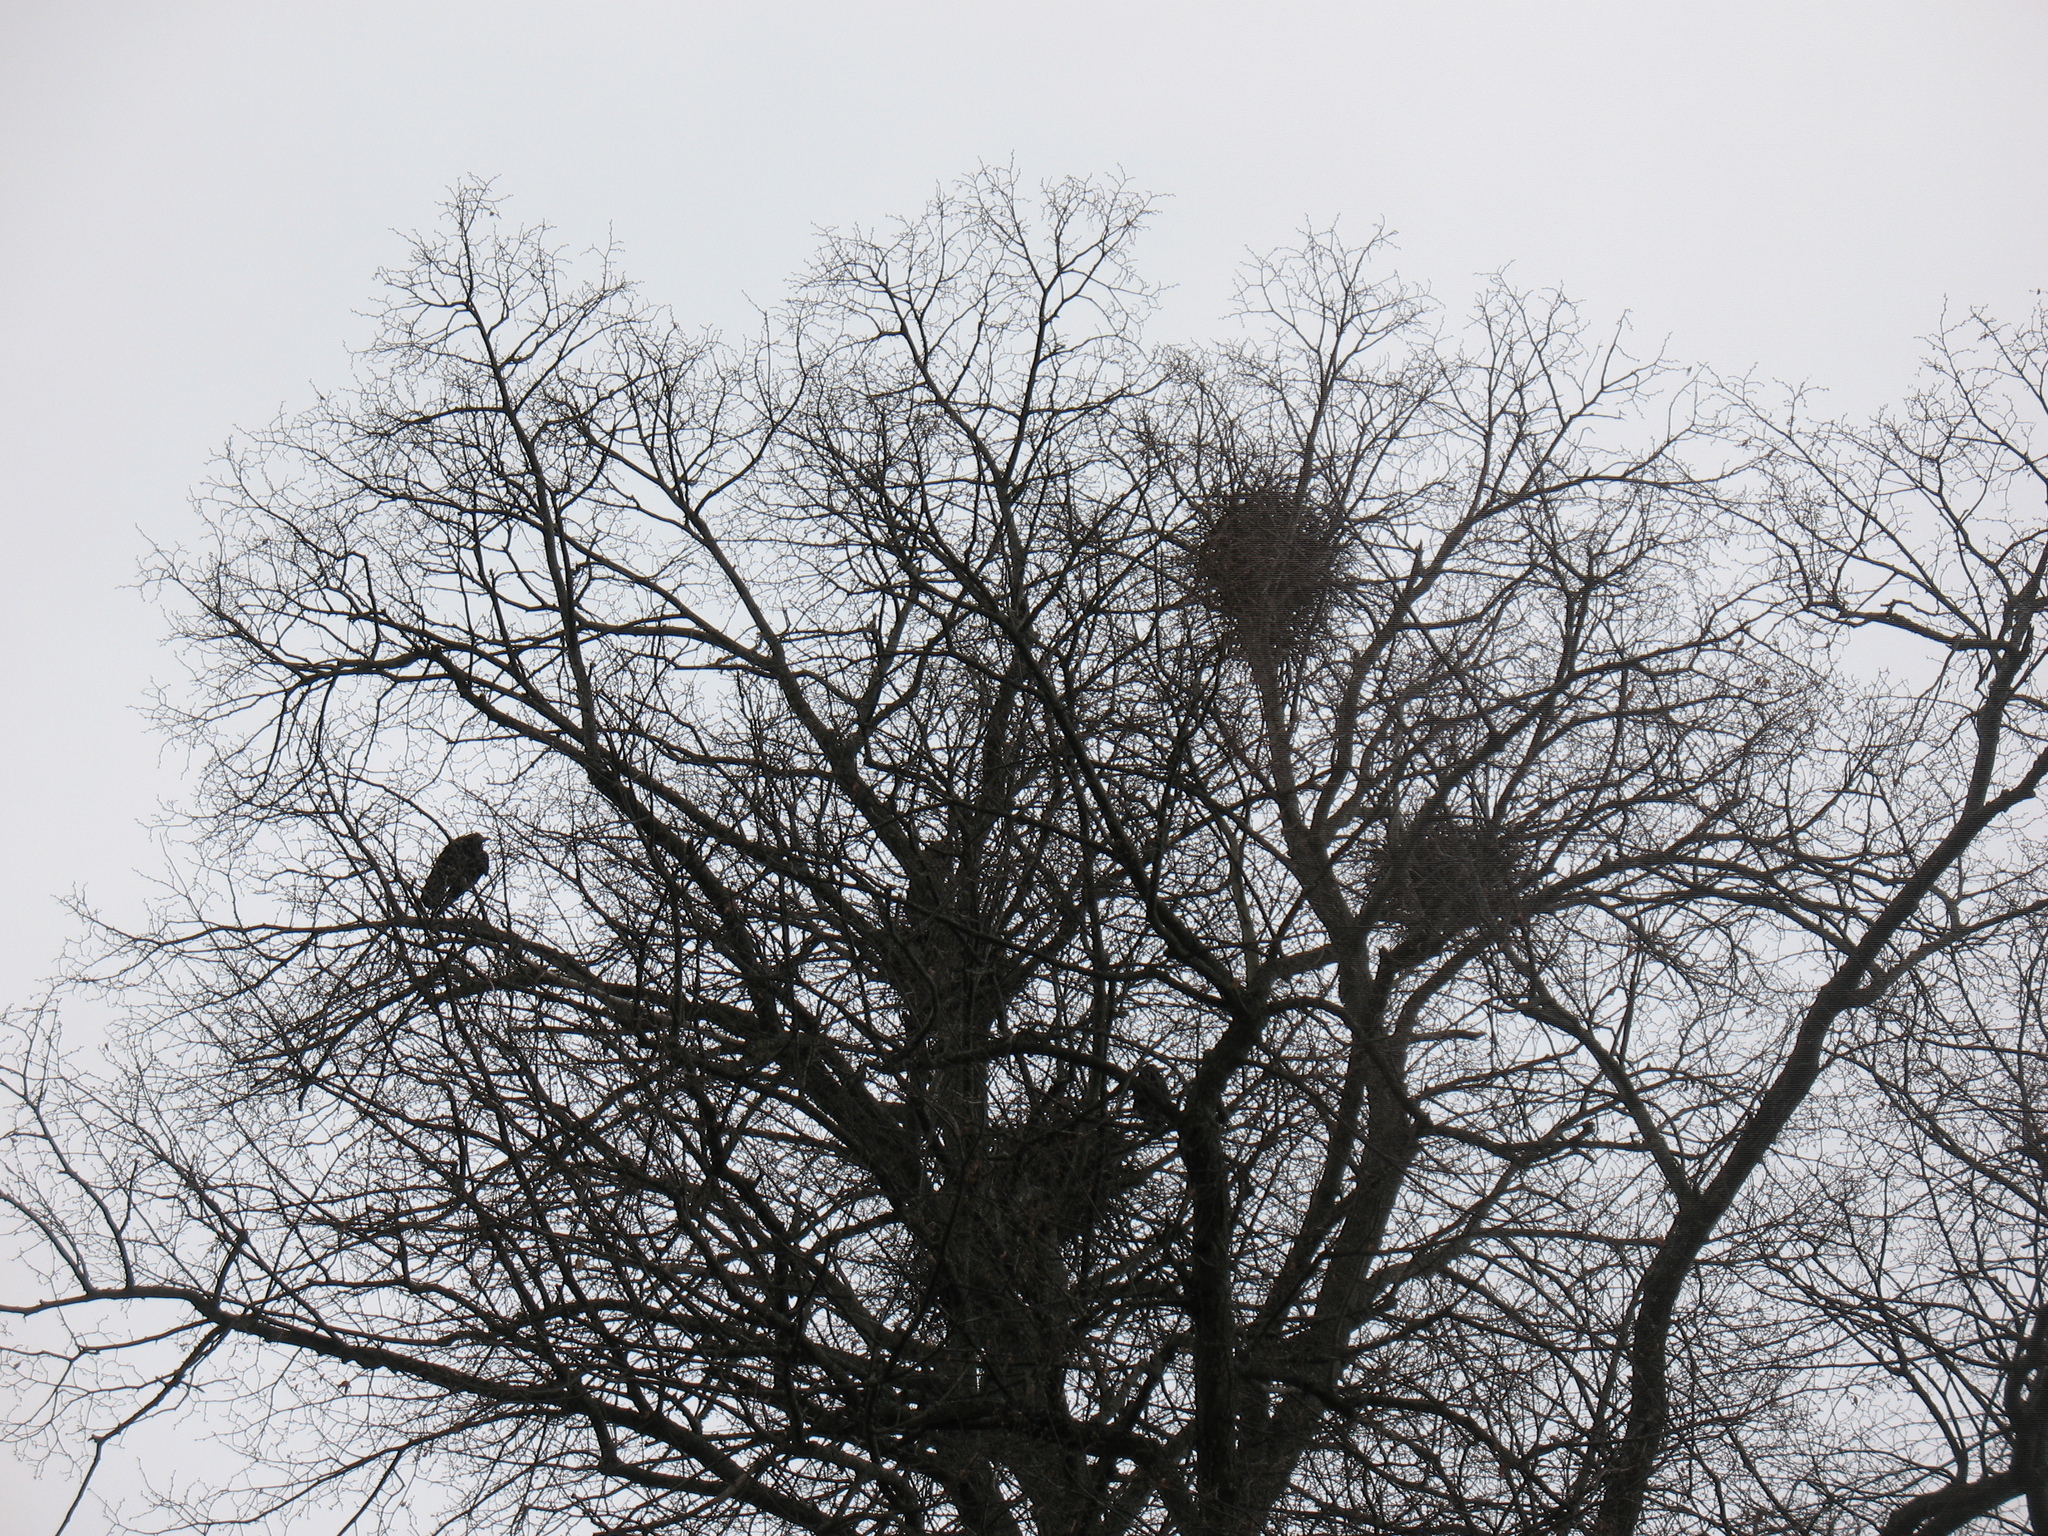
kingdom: Animalia
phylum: Chordata
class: Aves
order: Passeriformes
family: Corvidae
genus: Corvus
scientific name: Corvus frugilegus
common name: Rook
